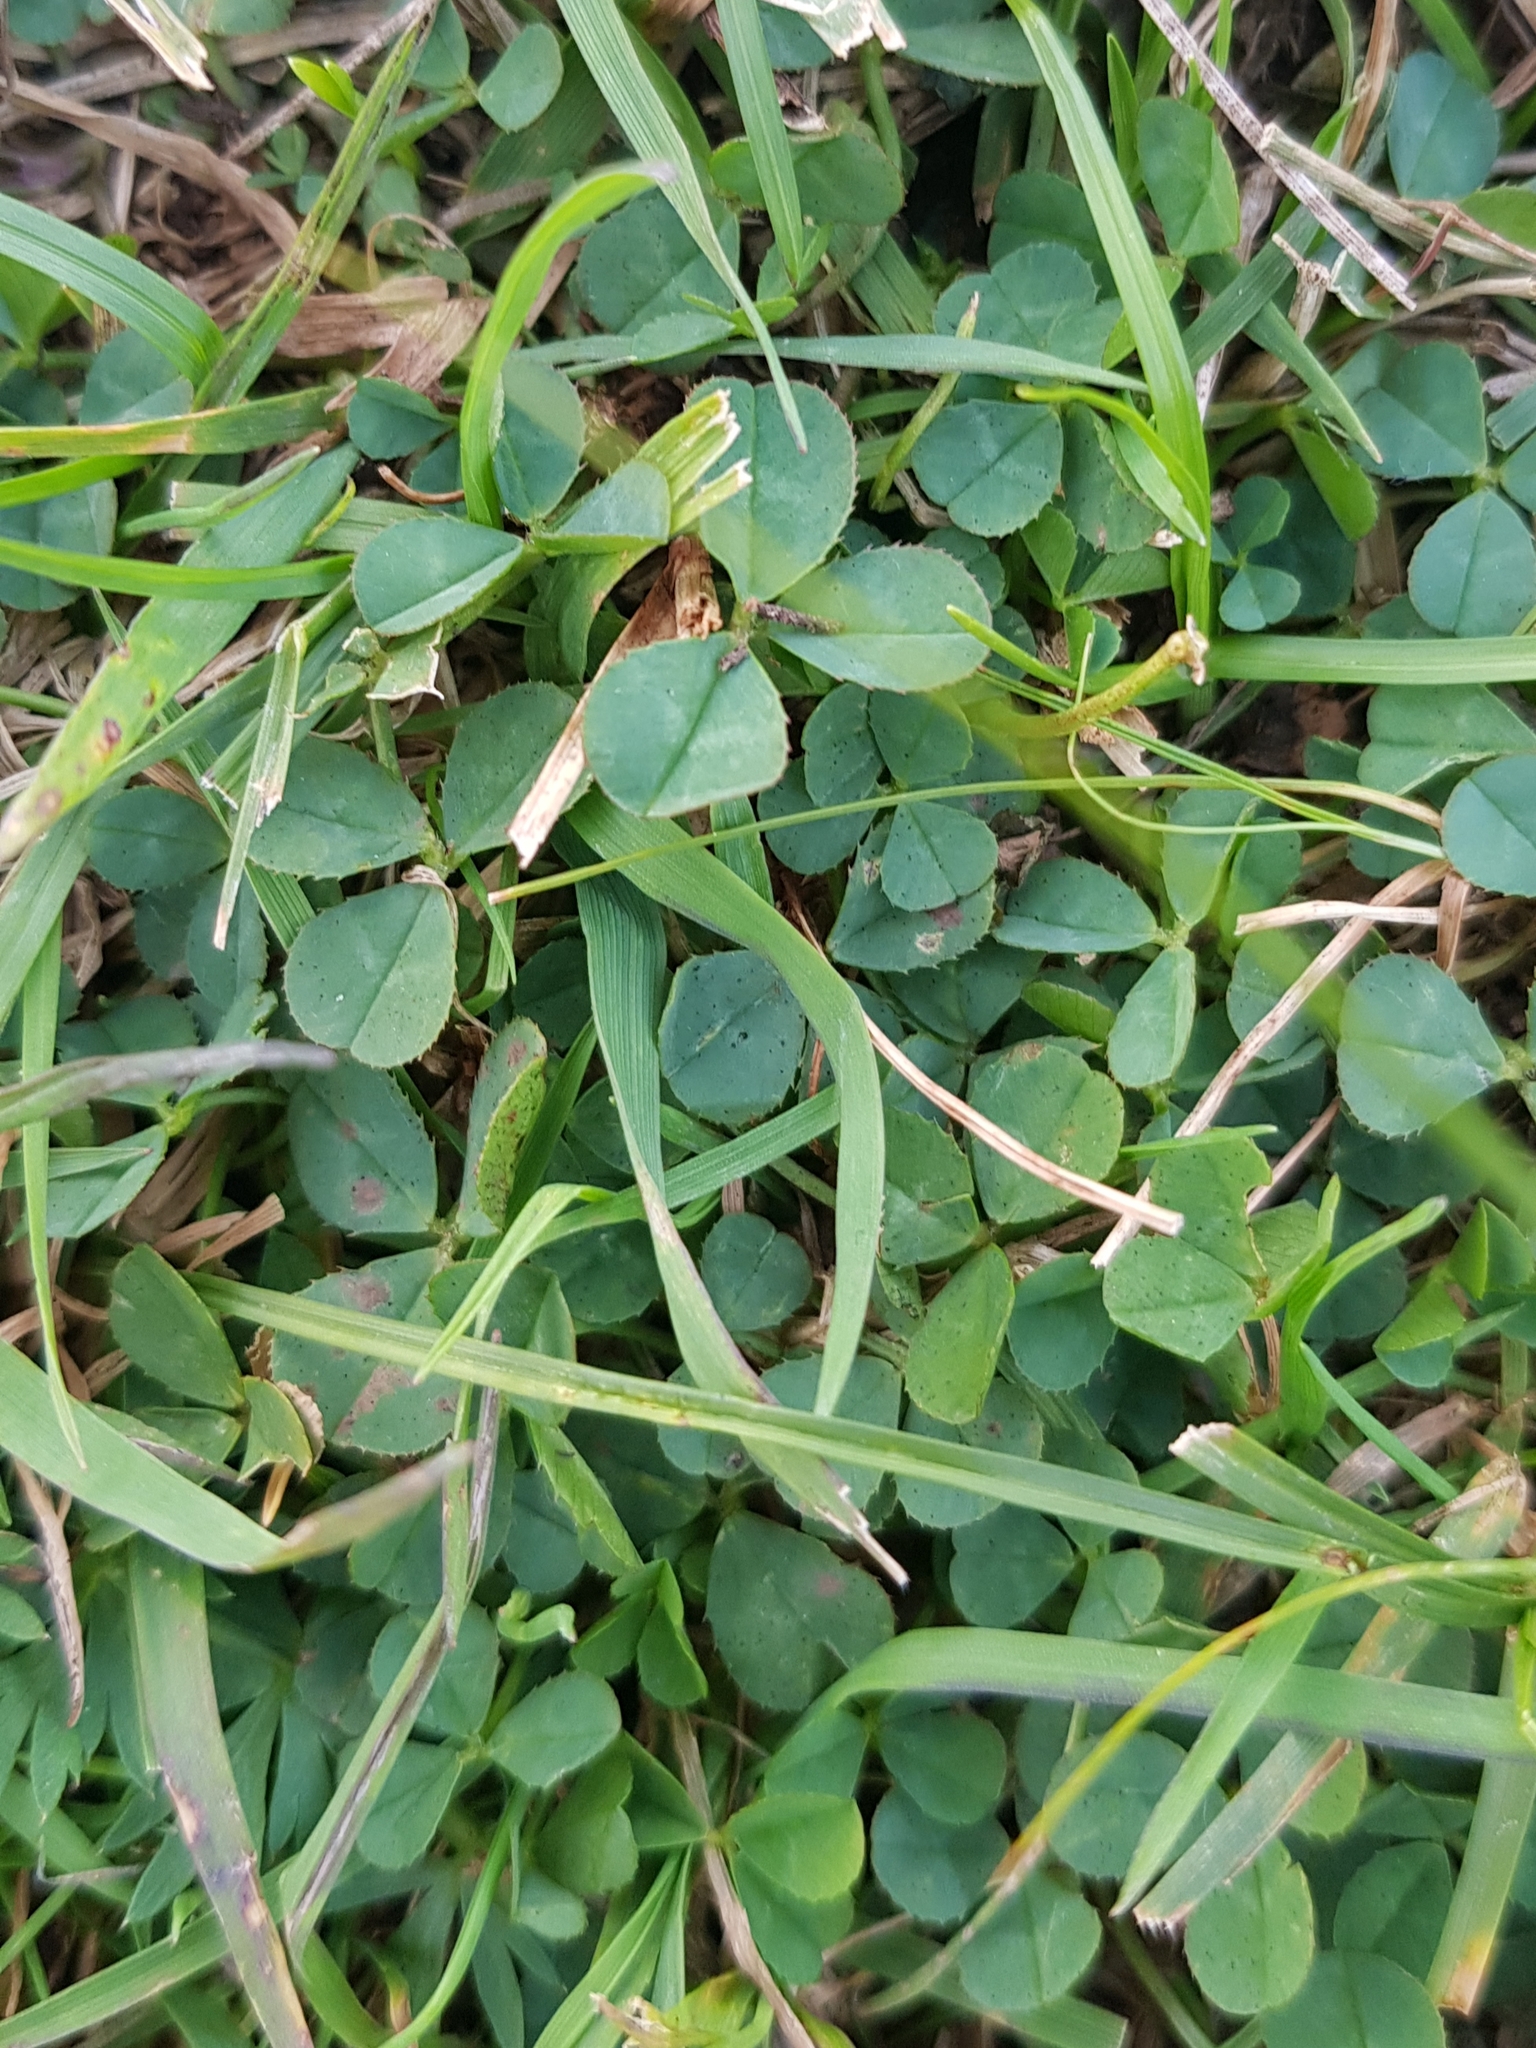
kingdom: Plantae
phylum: Tracheophyta
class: Magnoliopsida
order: Fabales
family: Fabaceae
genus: Trifolium
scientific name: Trifolium repens
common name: White clover
